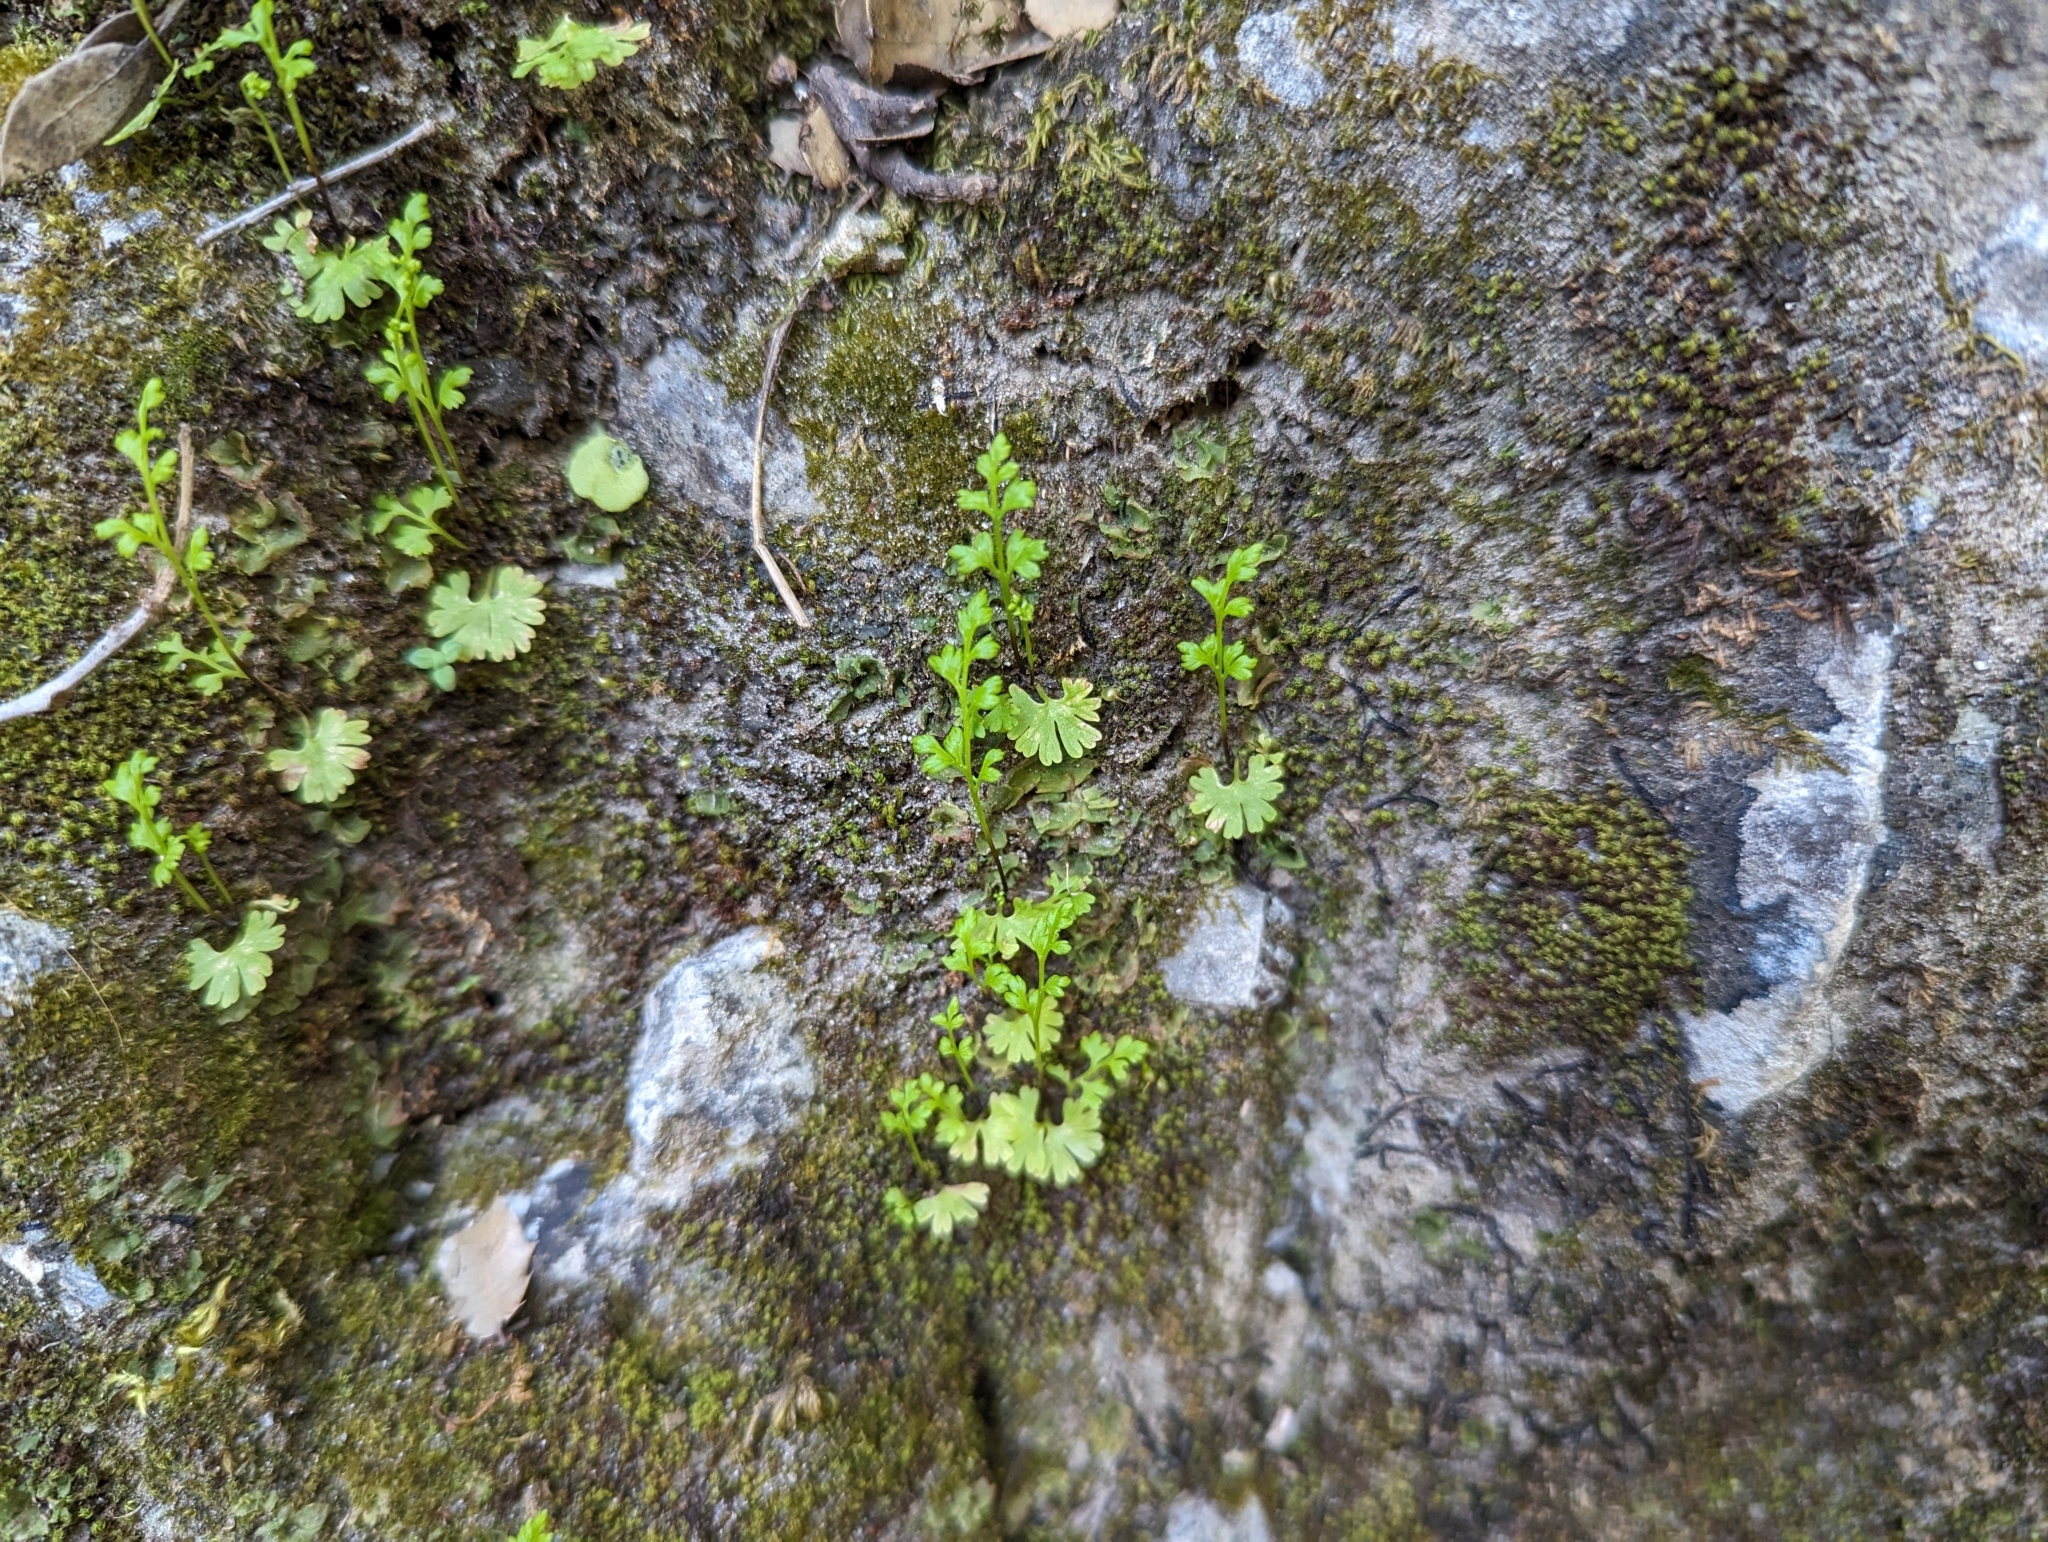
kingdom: Plantae
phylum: Tracheophyta
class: Polypodiopsida
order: Polypodiales
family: Pteridaceae
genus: Anogramma
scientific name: Anogramma leptophylla
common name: Jersey fern
